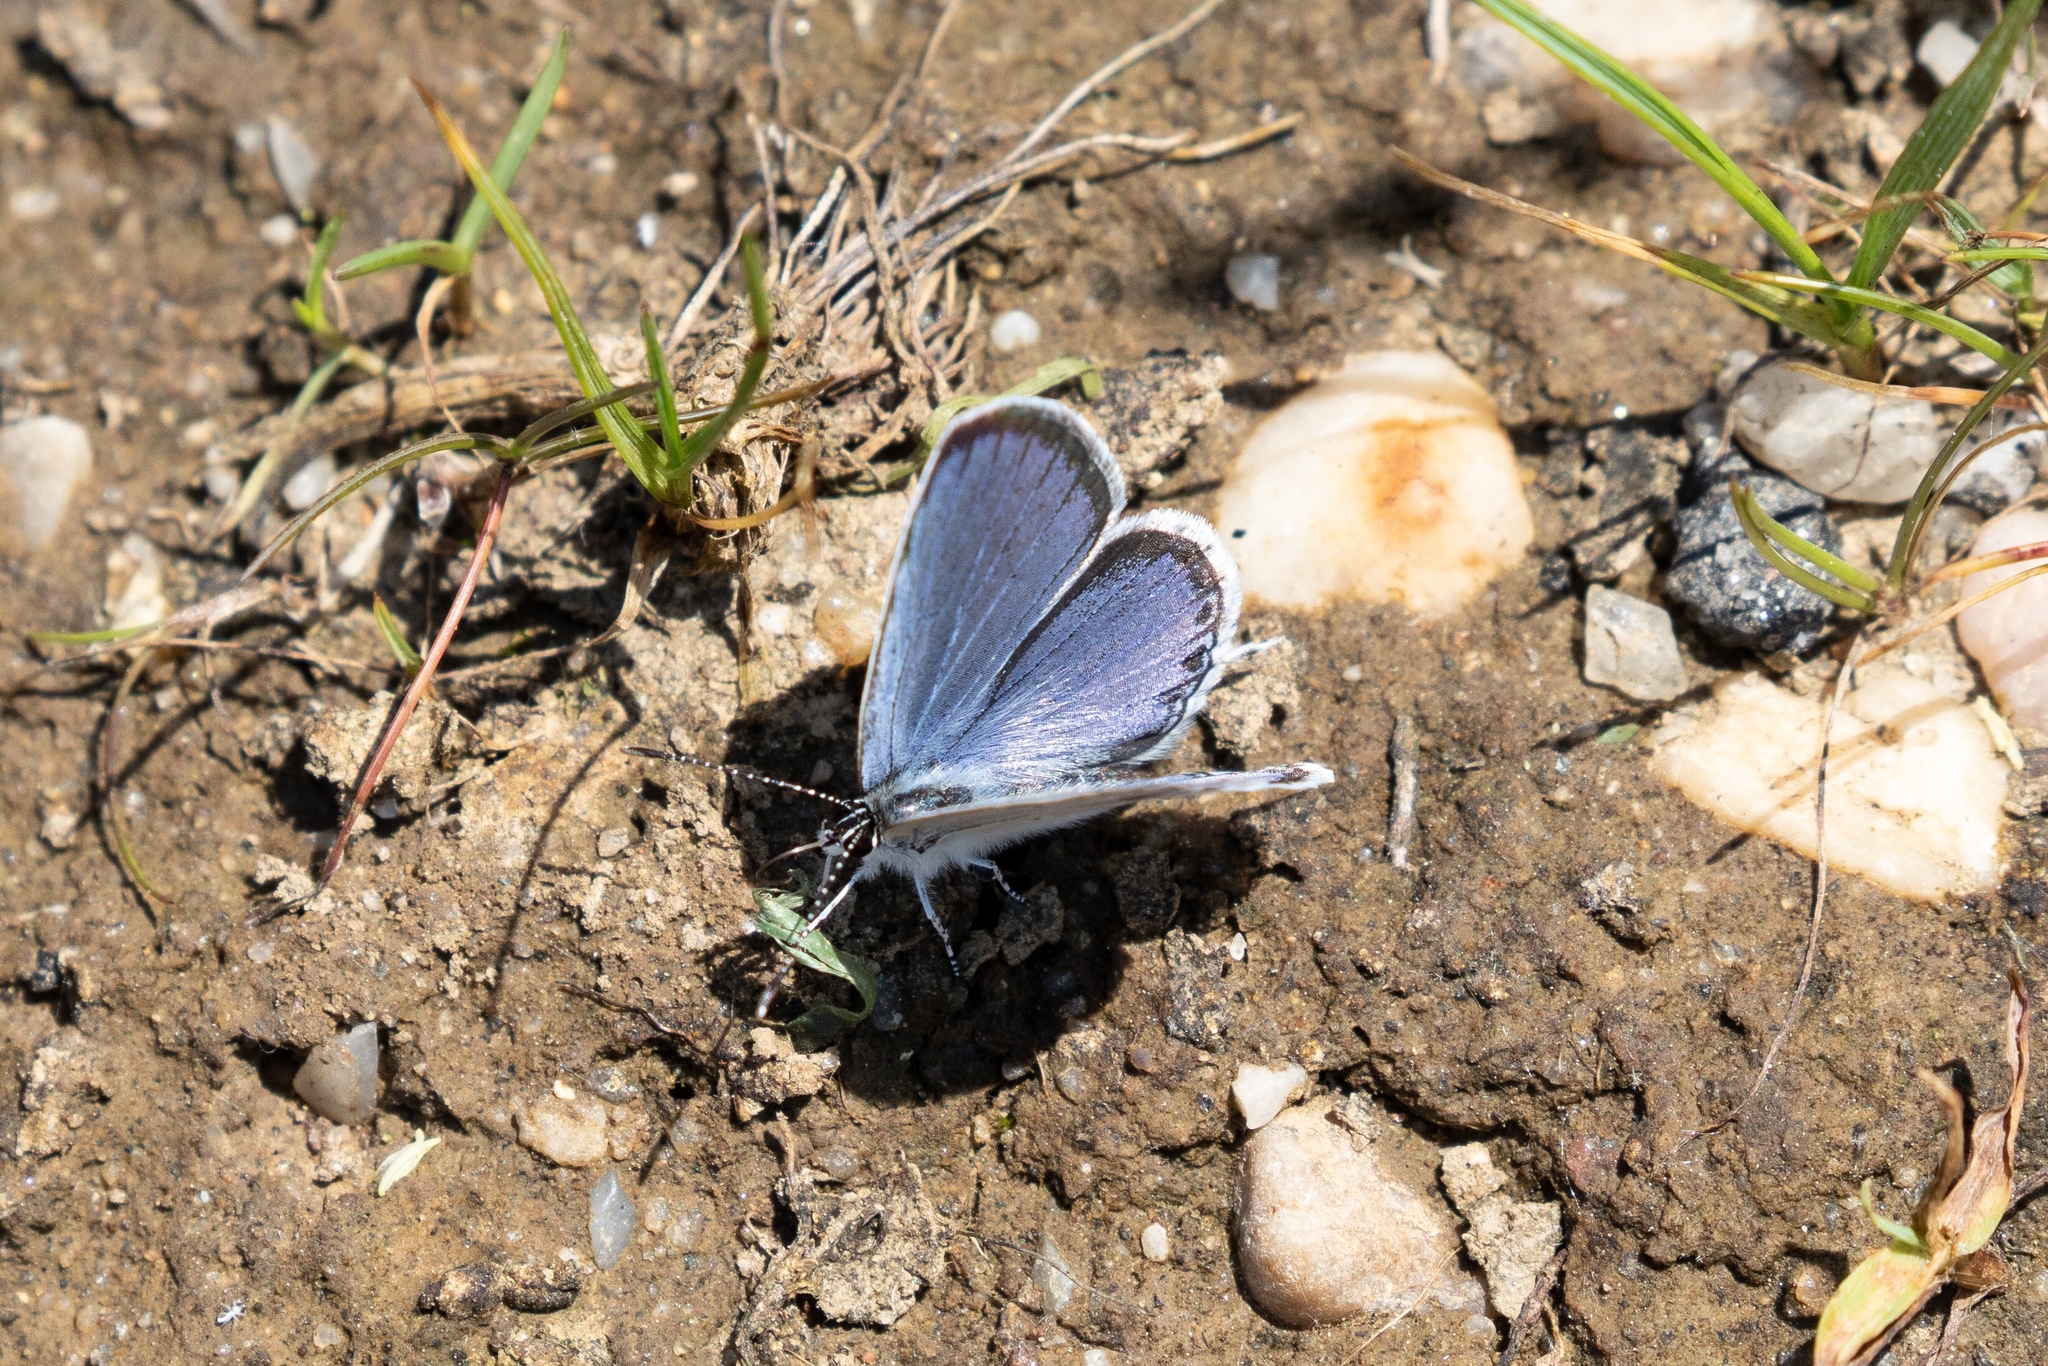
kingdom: Animalia
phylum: Arthropoda
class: Insecta
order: Lepidoptera
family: Lycaenidae
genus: Elkalyce
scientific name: Elkalyce comyntas
